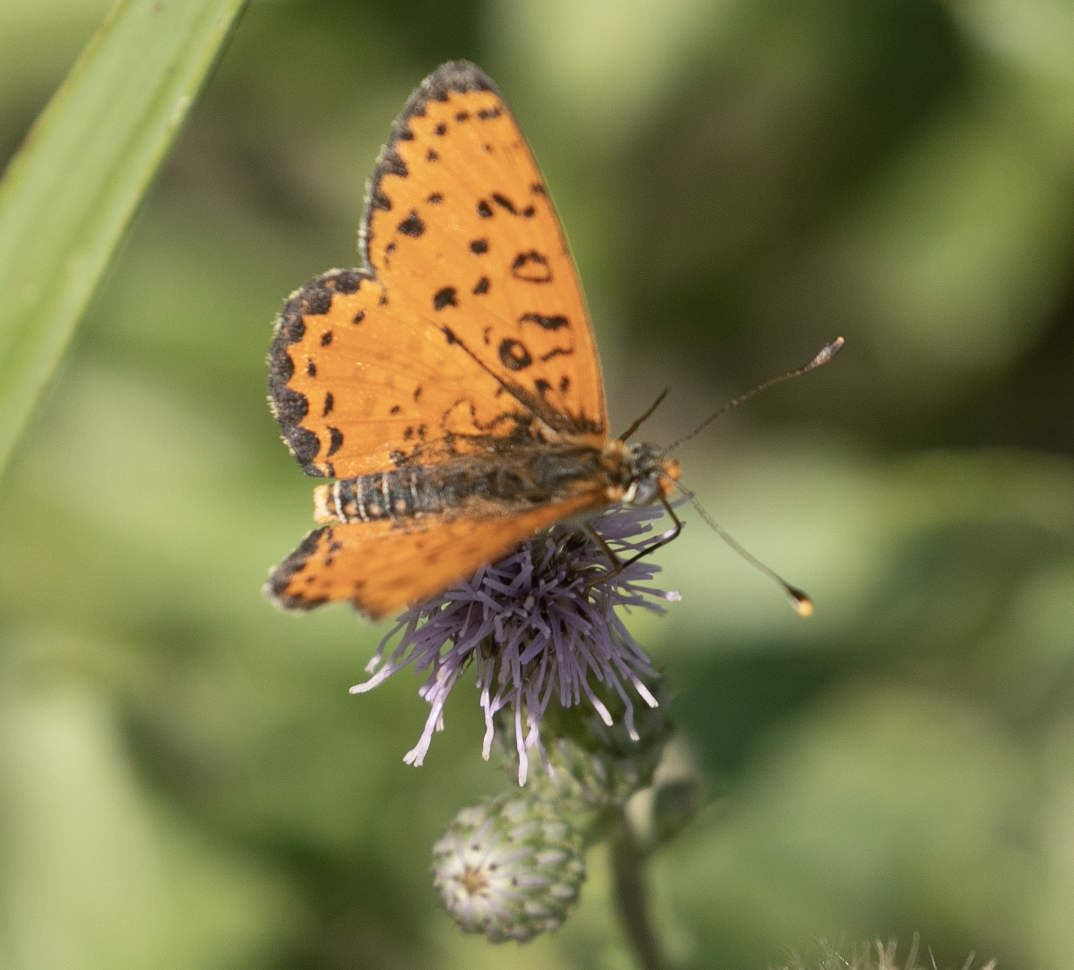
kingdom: Animalia
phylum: Arthropoda
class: Insecta
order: Lepidoptera
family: Nymphalidae
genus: Melitaea
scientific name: Melitaea didyma
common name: Spotted fritillary
